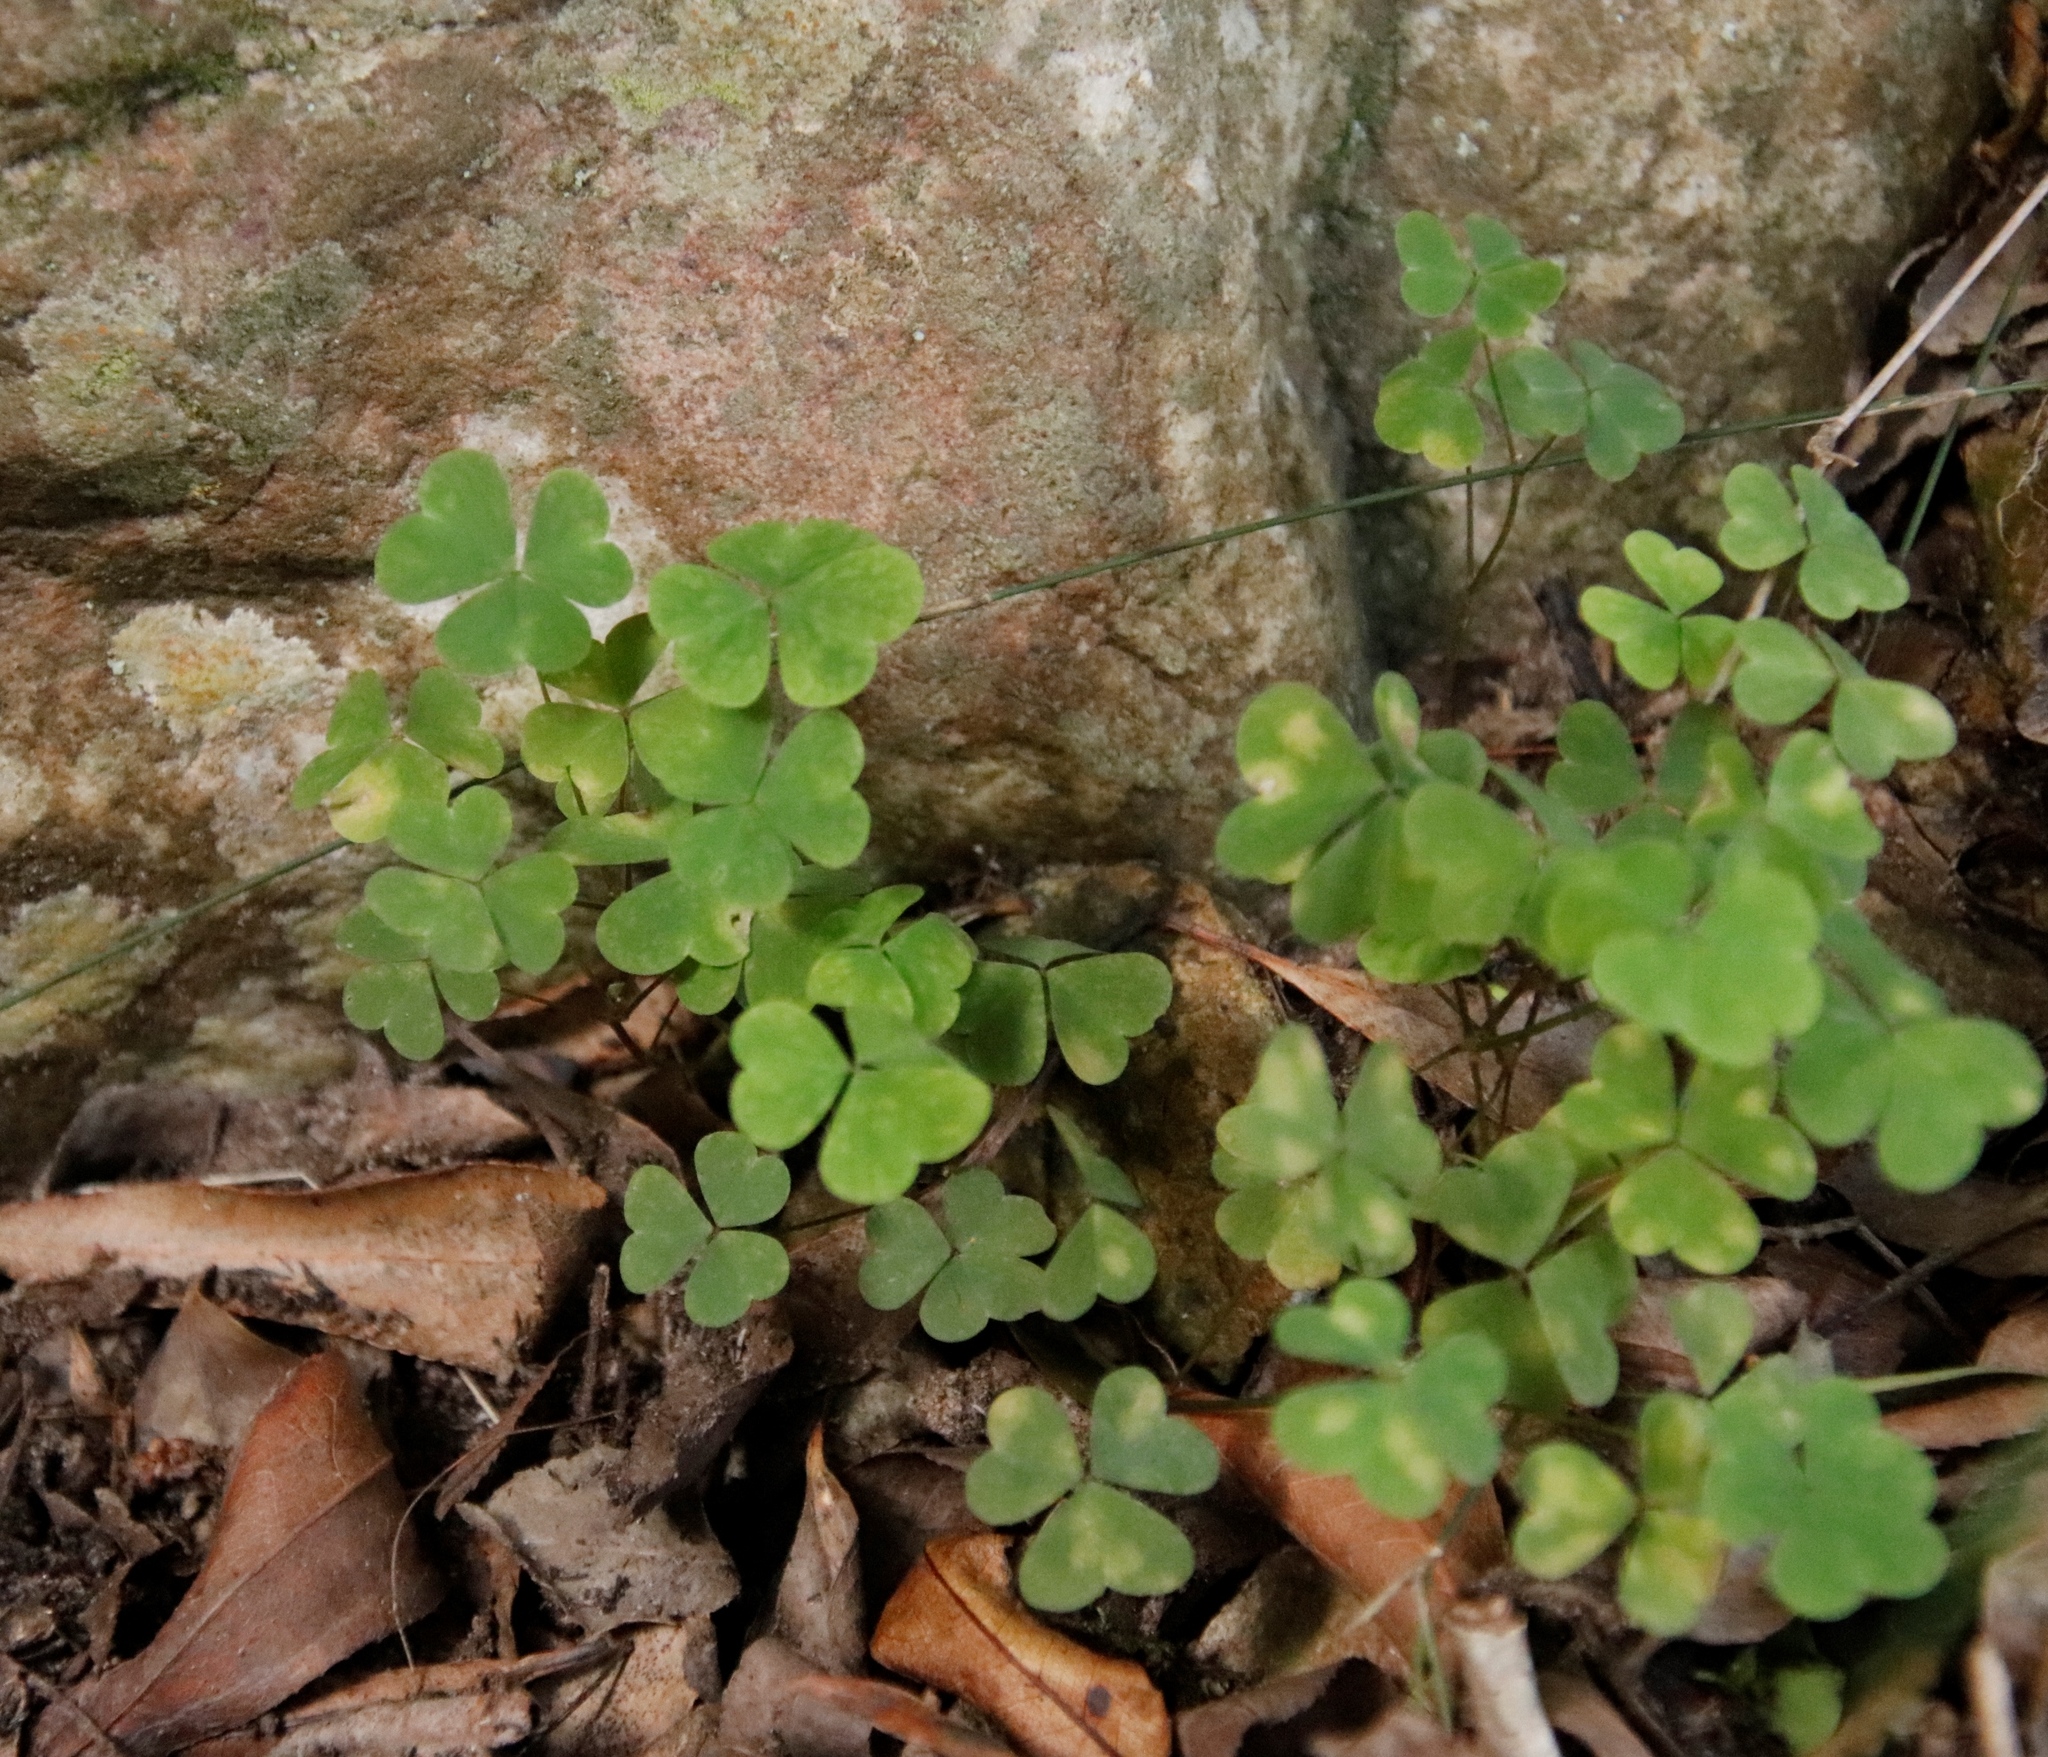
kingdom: Plantae
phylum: Tracheophyta
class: Magnoliopsida
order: Oxalidales
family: Oxalidaceae
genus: Oxalis
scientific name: Oxalis incarnata
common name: Pale pink-sorrel
